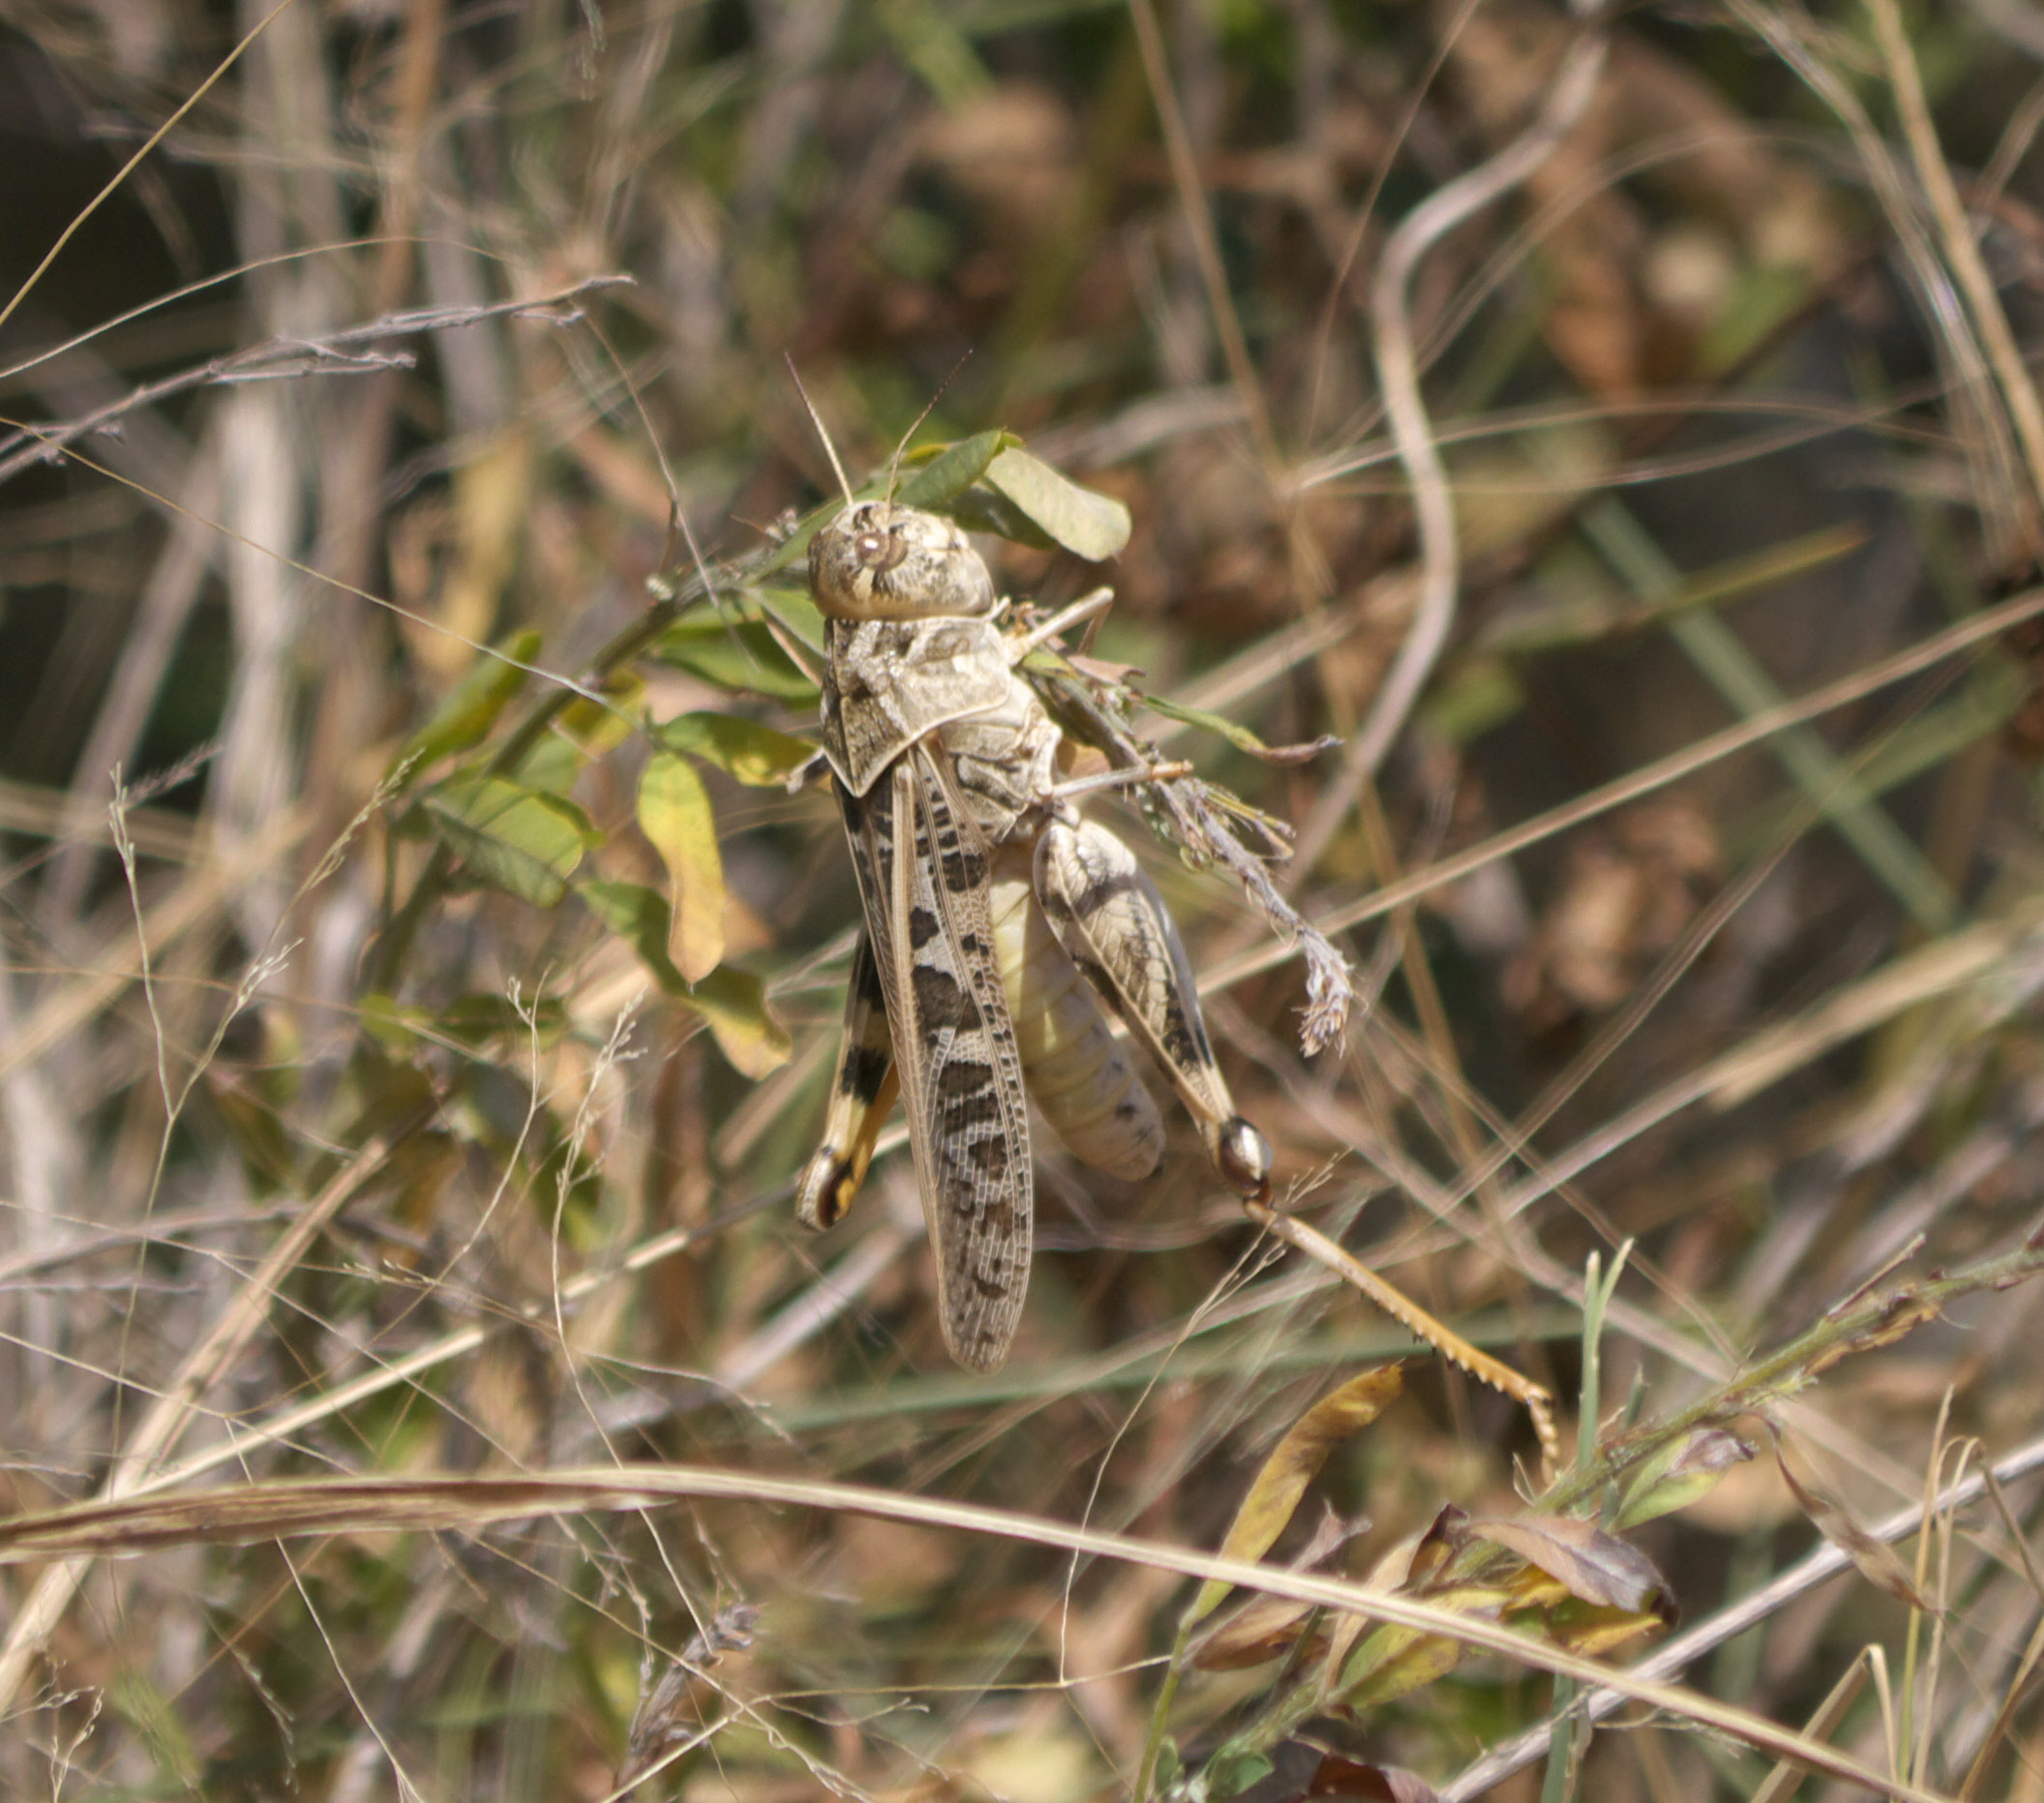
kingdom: Animalia
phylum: Arthropoda
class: Insecta
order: Orthoptera
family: Acrididae
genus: Hippiscus
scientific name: Hippiscus ocelote
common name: Wrinkled grasshopper
